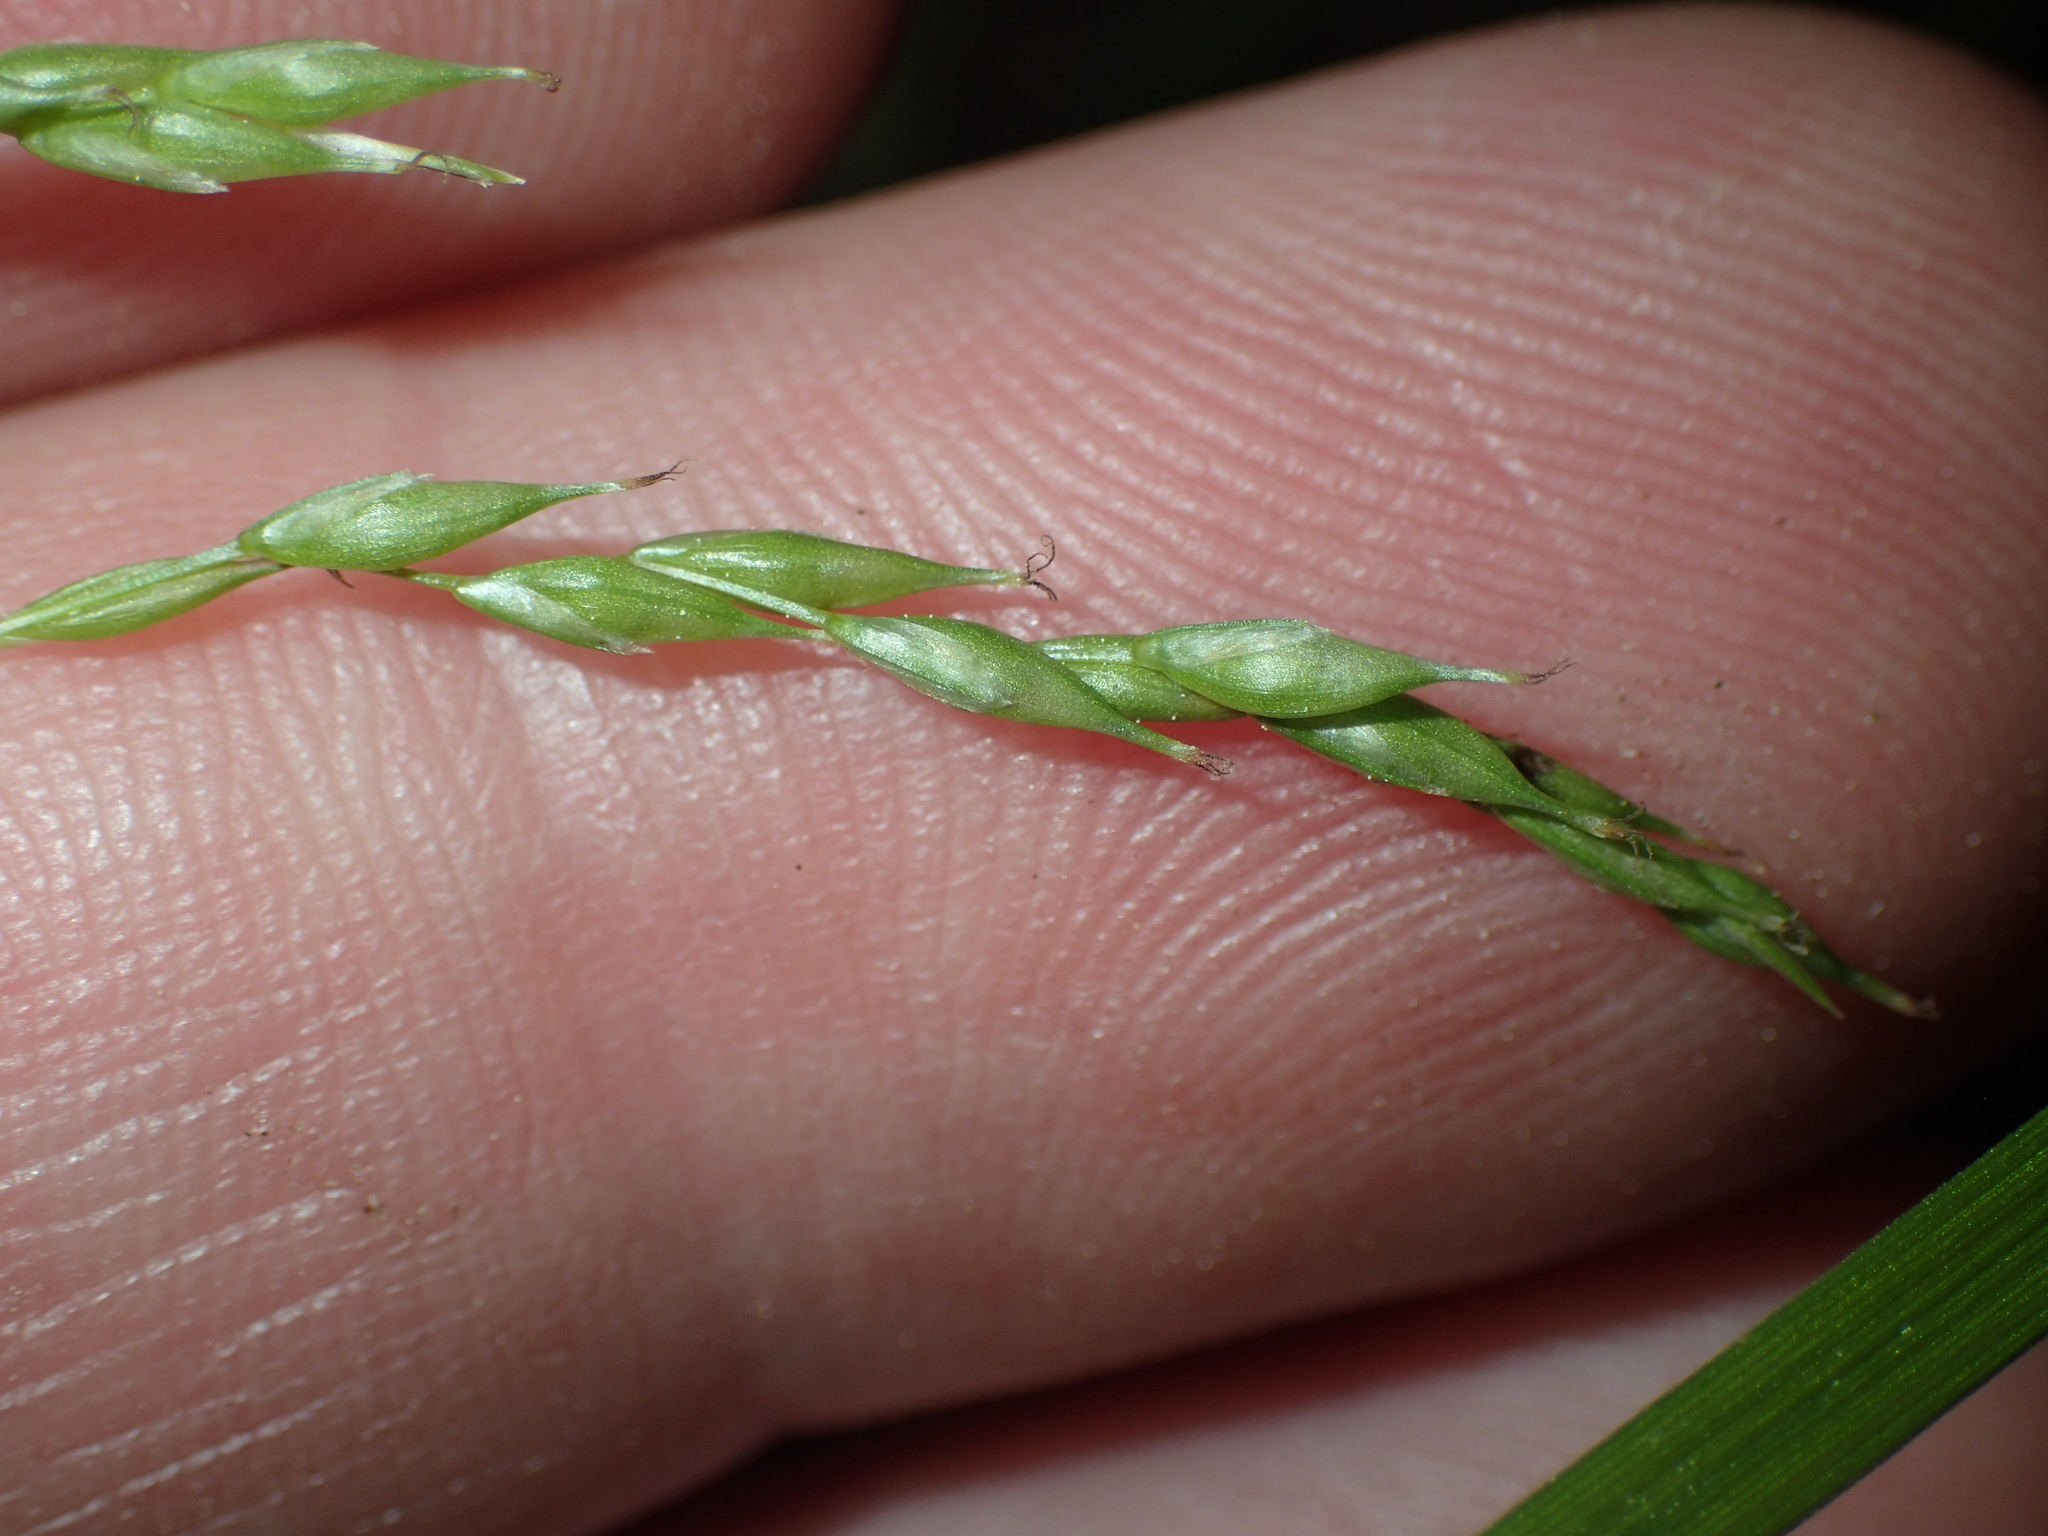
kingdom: Plantae
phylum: Tracheophyta
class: Liliopsida
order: Poales
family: Cyperaceae
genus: Carex
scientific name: Carex debilis
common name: White-edge sedge
